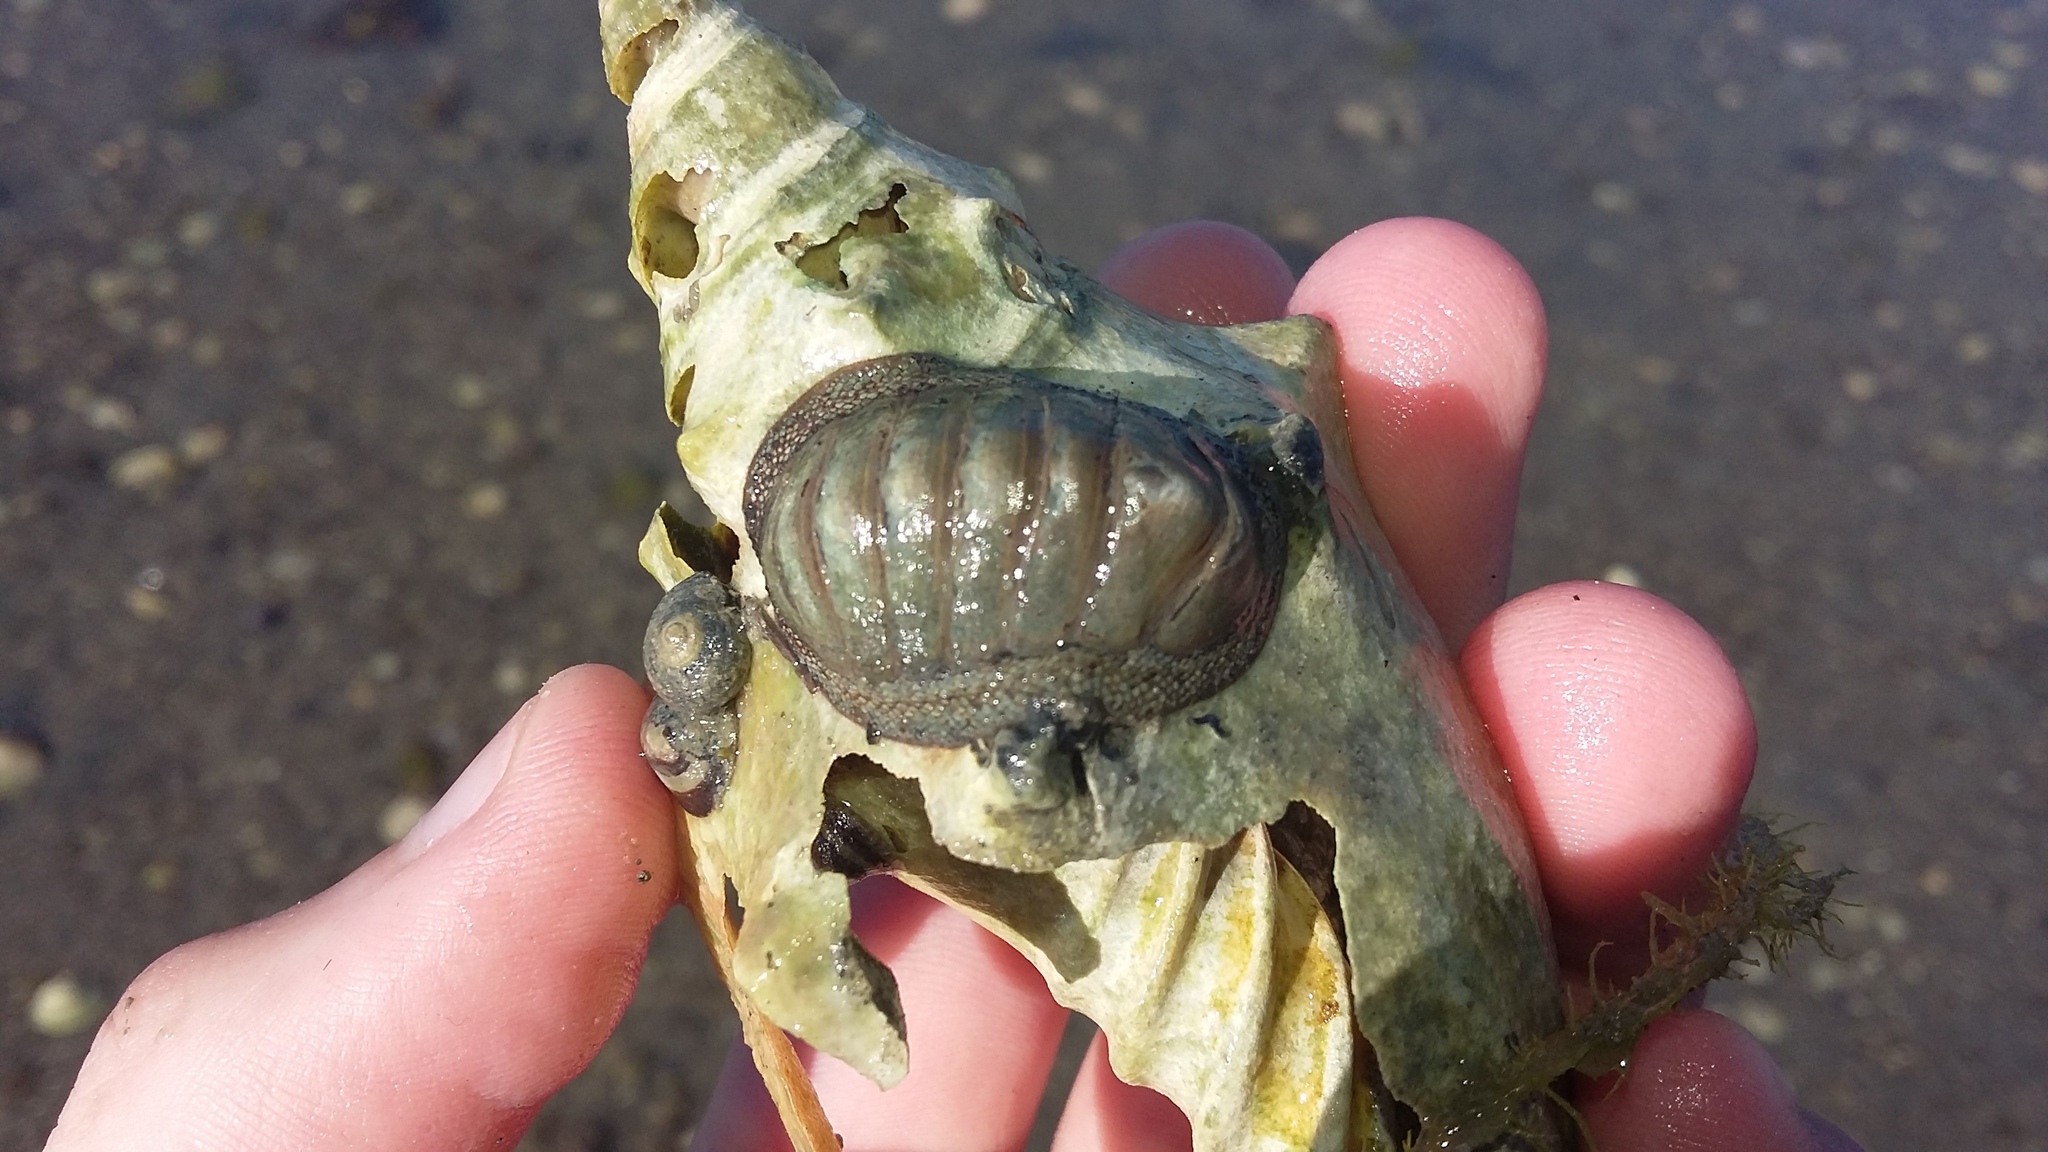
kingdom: Animalia
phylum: Mollusca
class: Polyplacophora
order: Chitonida
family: Chitonidae
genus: Chiton
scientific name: Chiton glaucus
